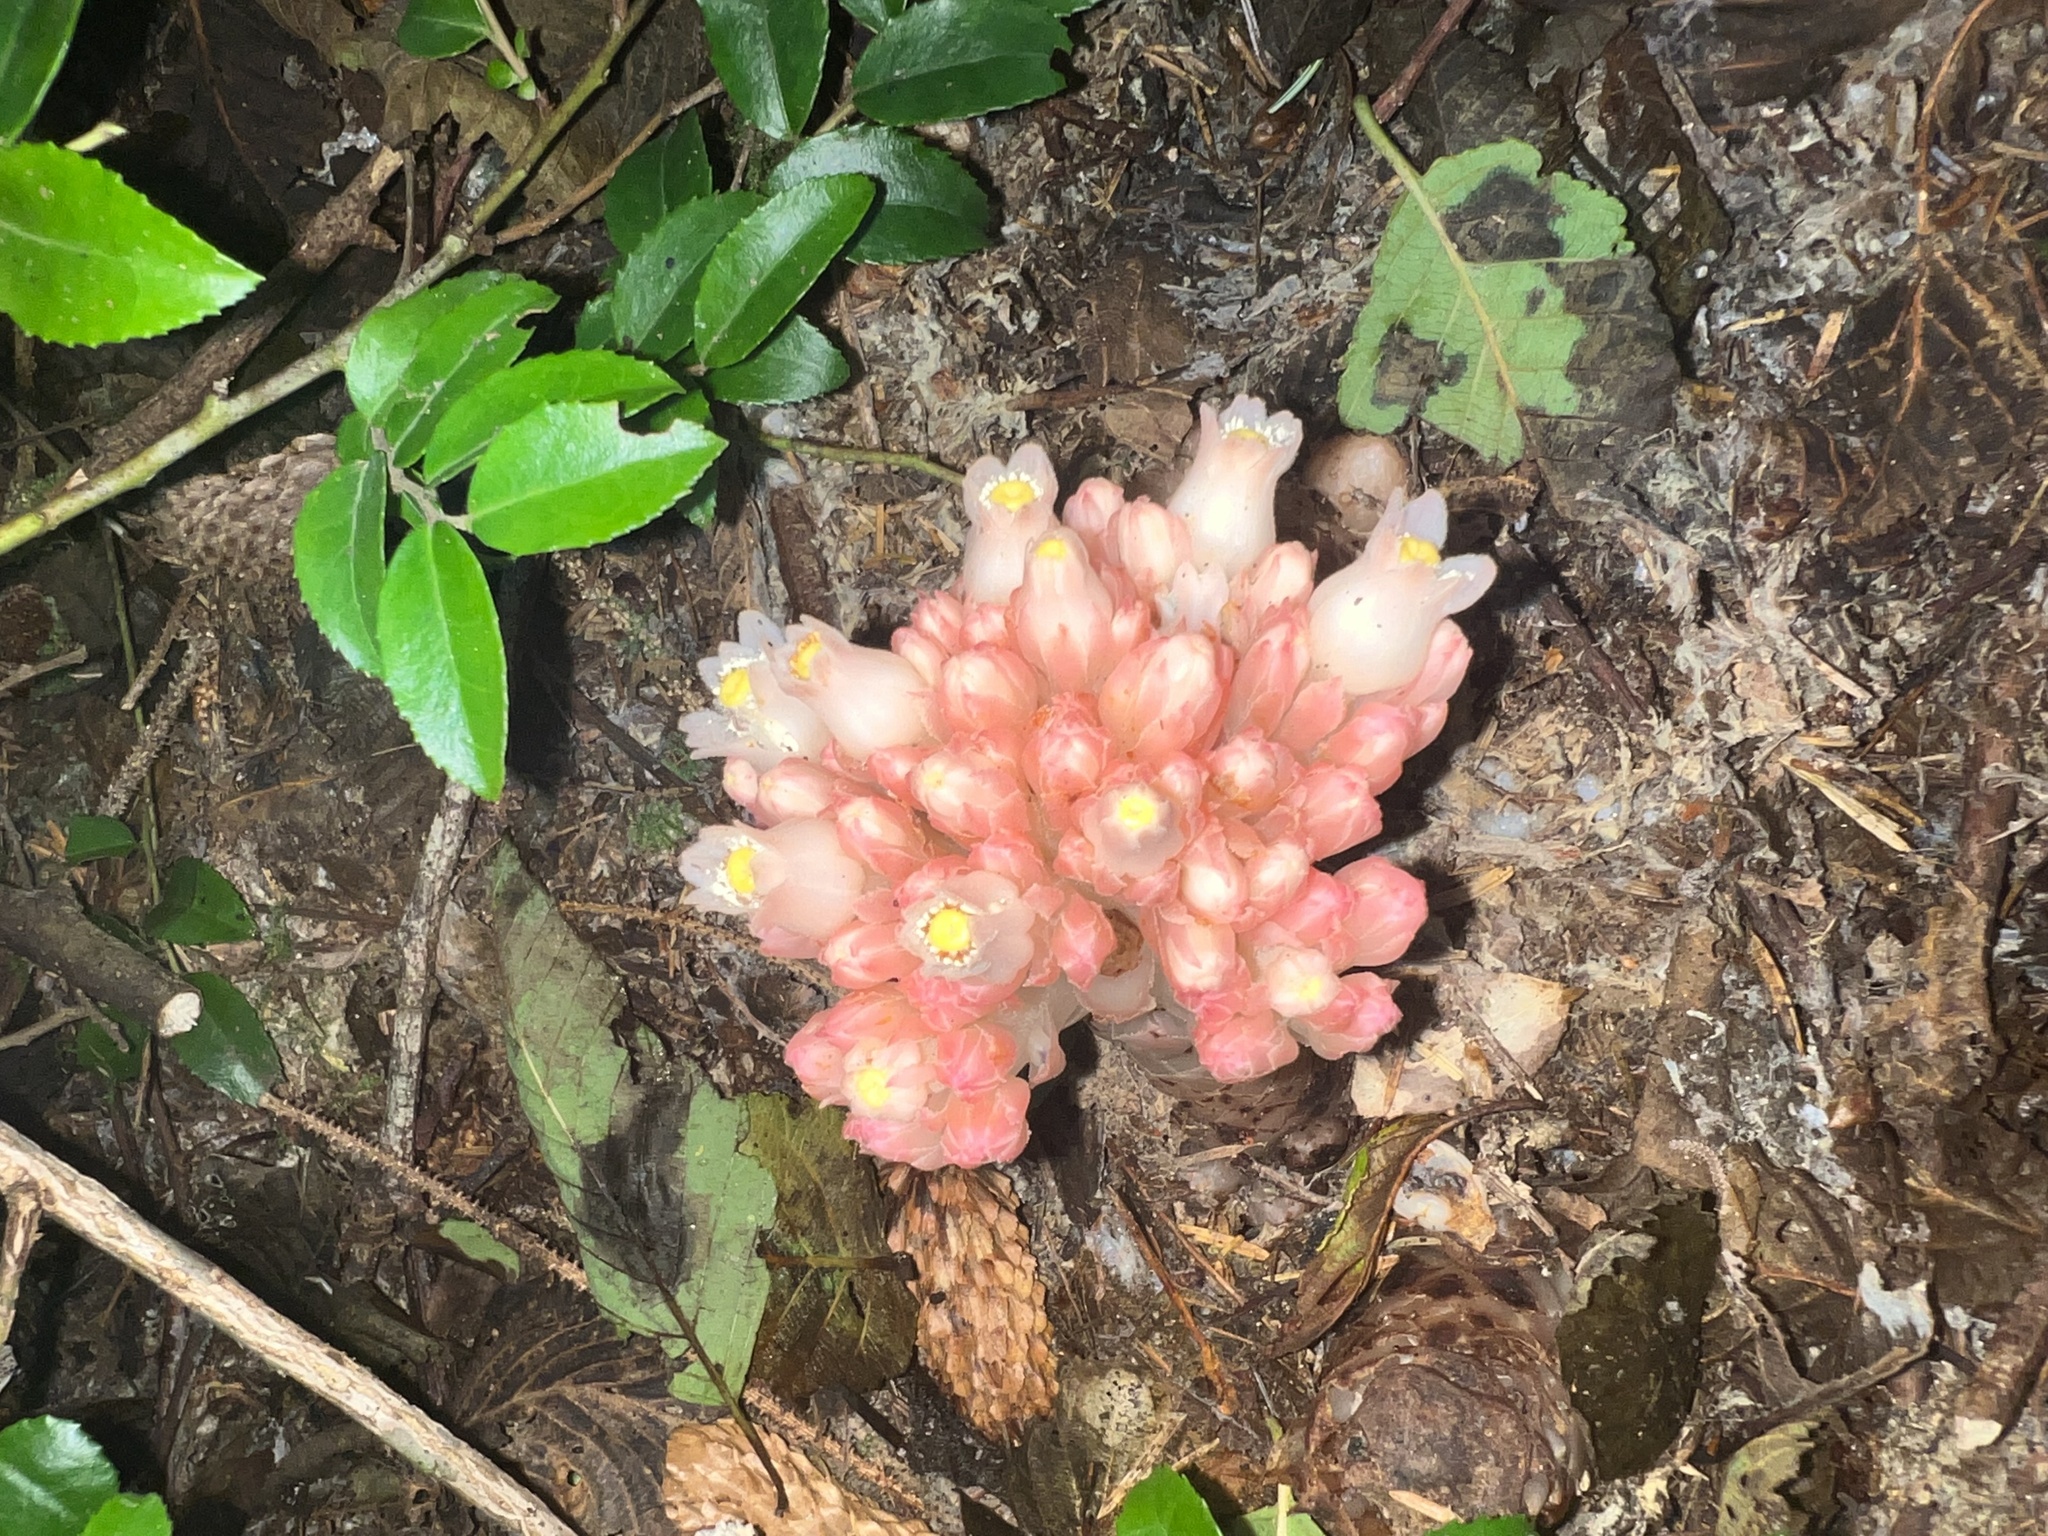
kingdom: Plantae
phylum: Tracheophyta
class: Magnoliopsida
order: Ericales
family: Ericaceae
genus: Hemitomes
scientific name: Hemitomes congestum
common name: Cone plant
